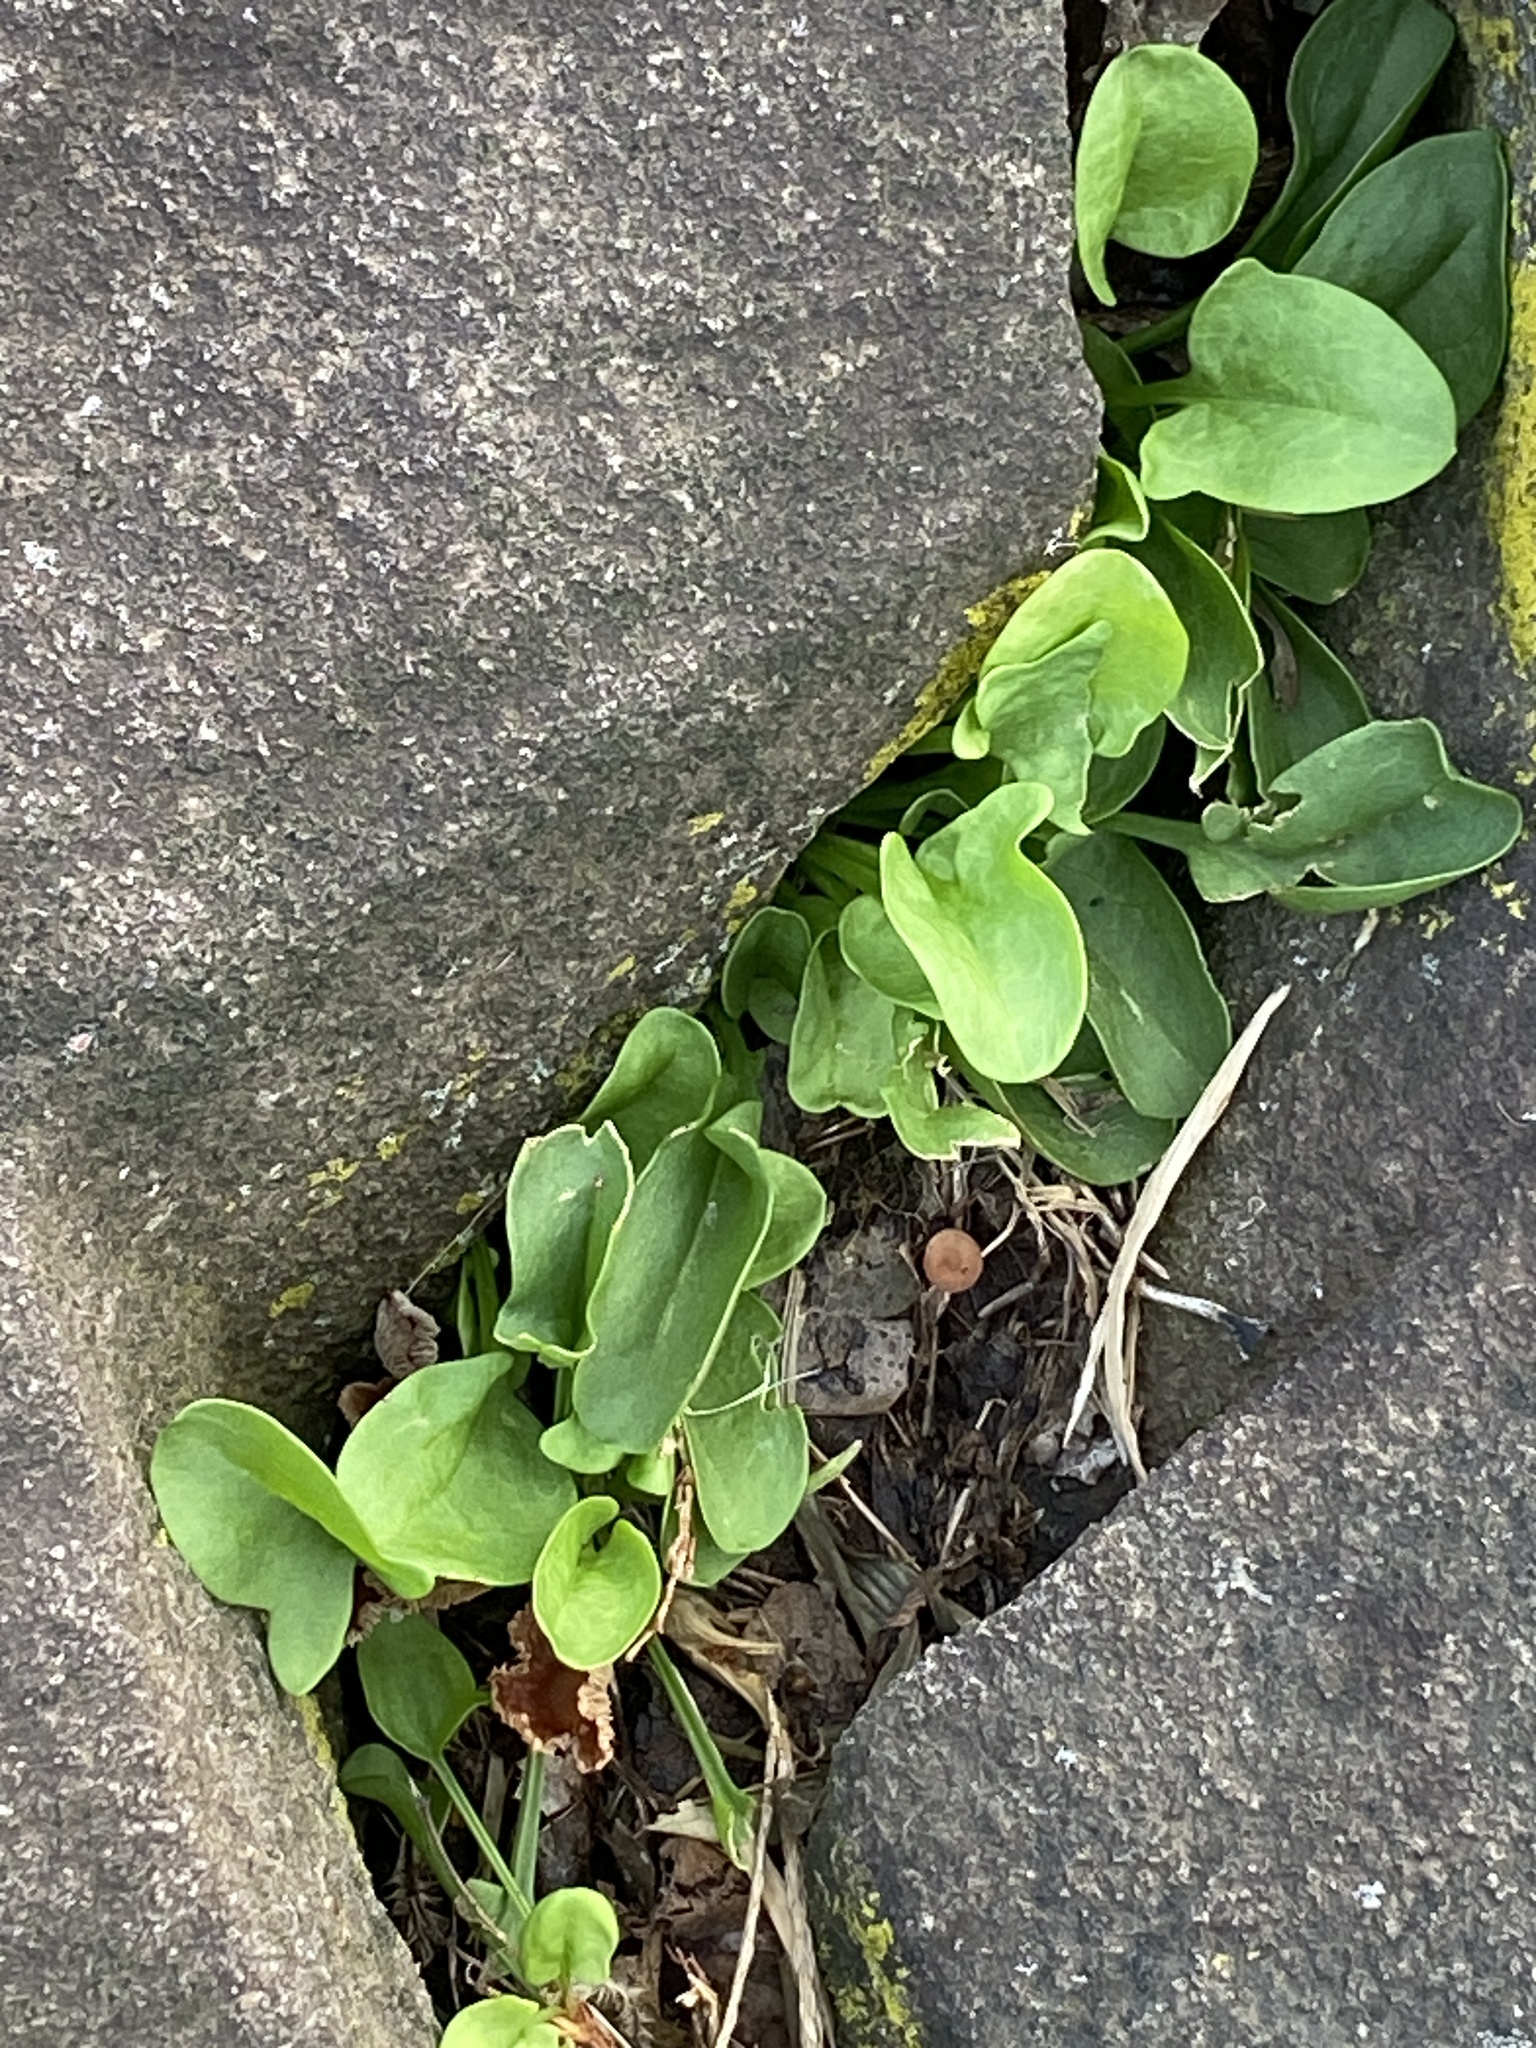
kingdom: Plantae
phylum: Tracheophyta
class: Magnoliopsida
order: Caryophyllales
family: Polygonaceae
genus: Rumex
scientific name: Rumex acetosella
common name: Common sheep sorrel
